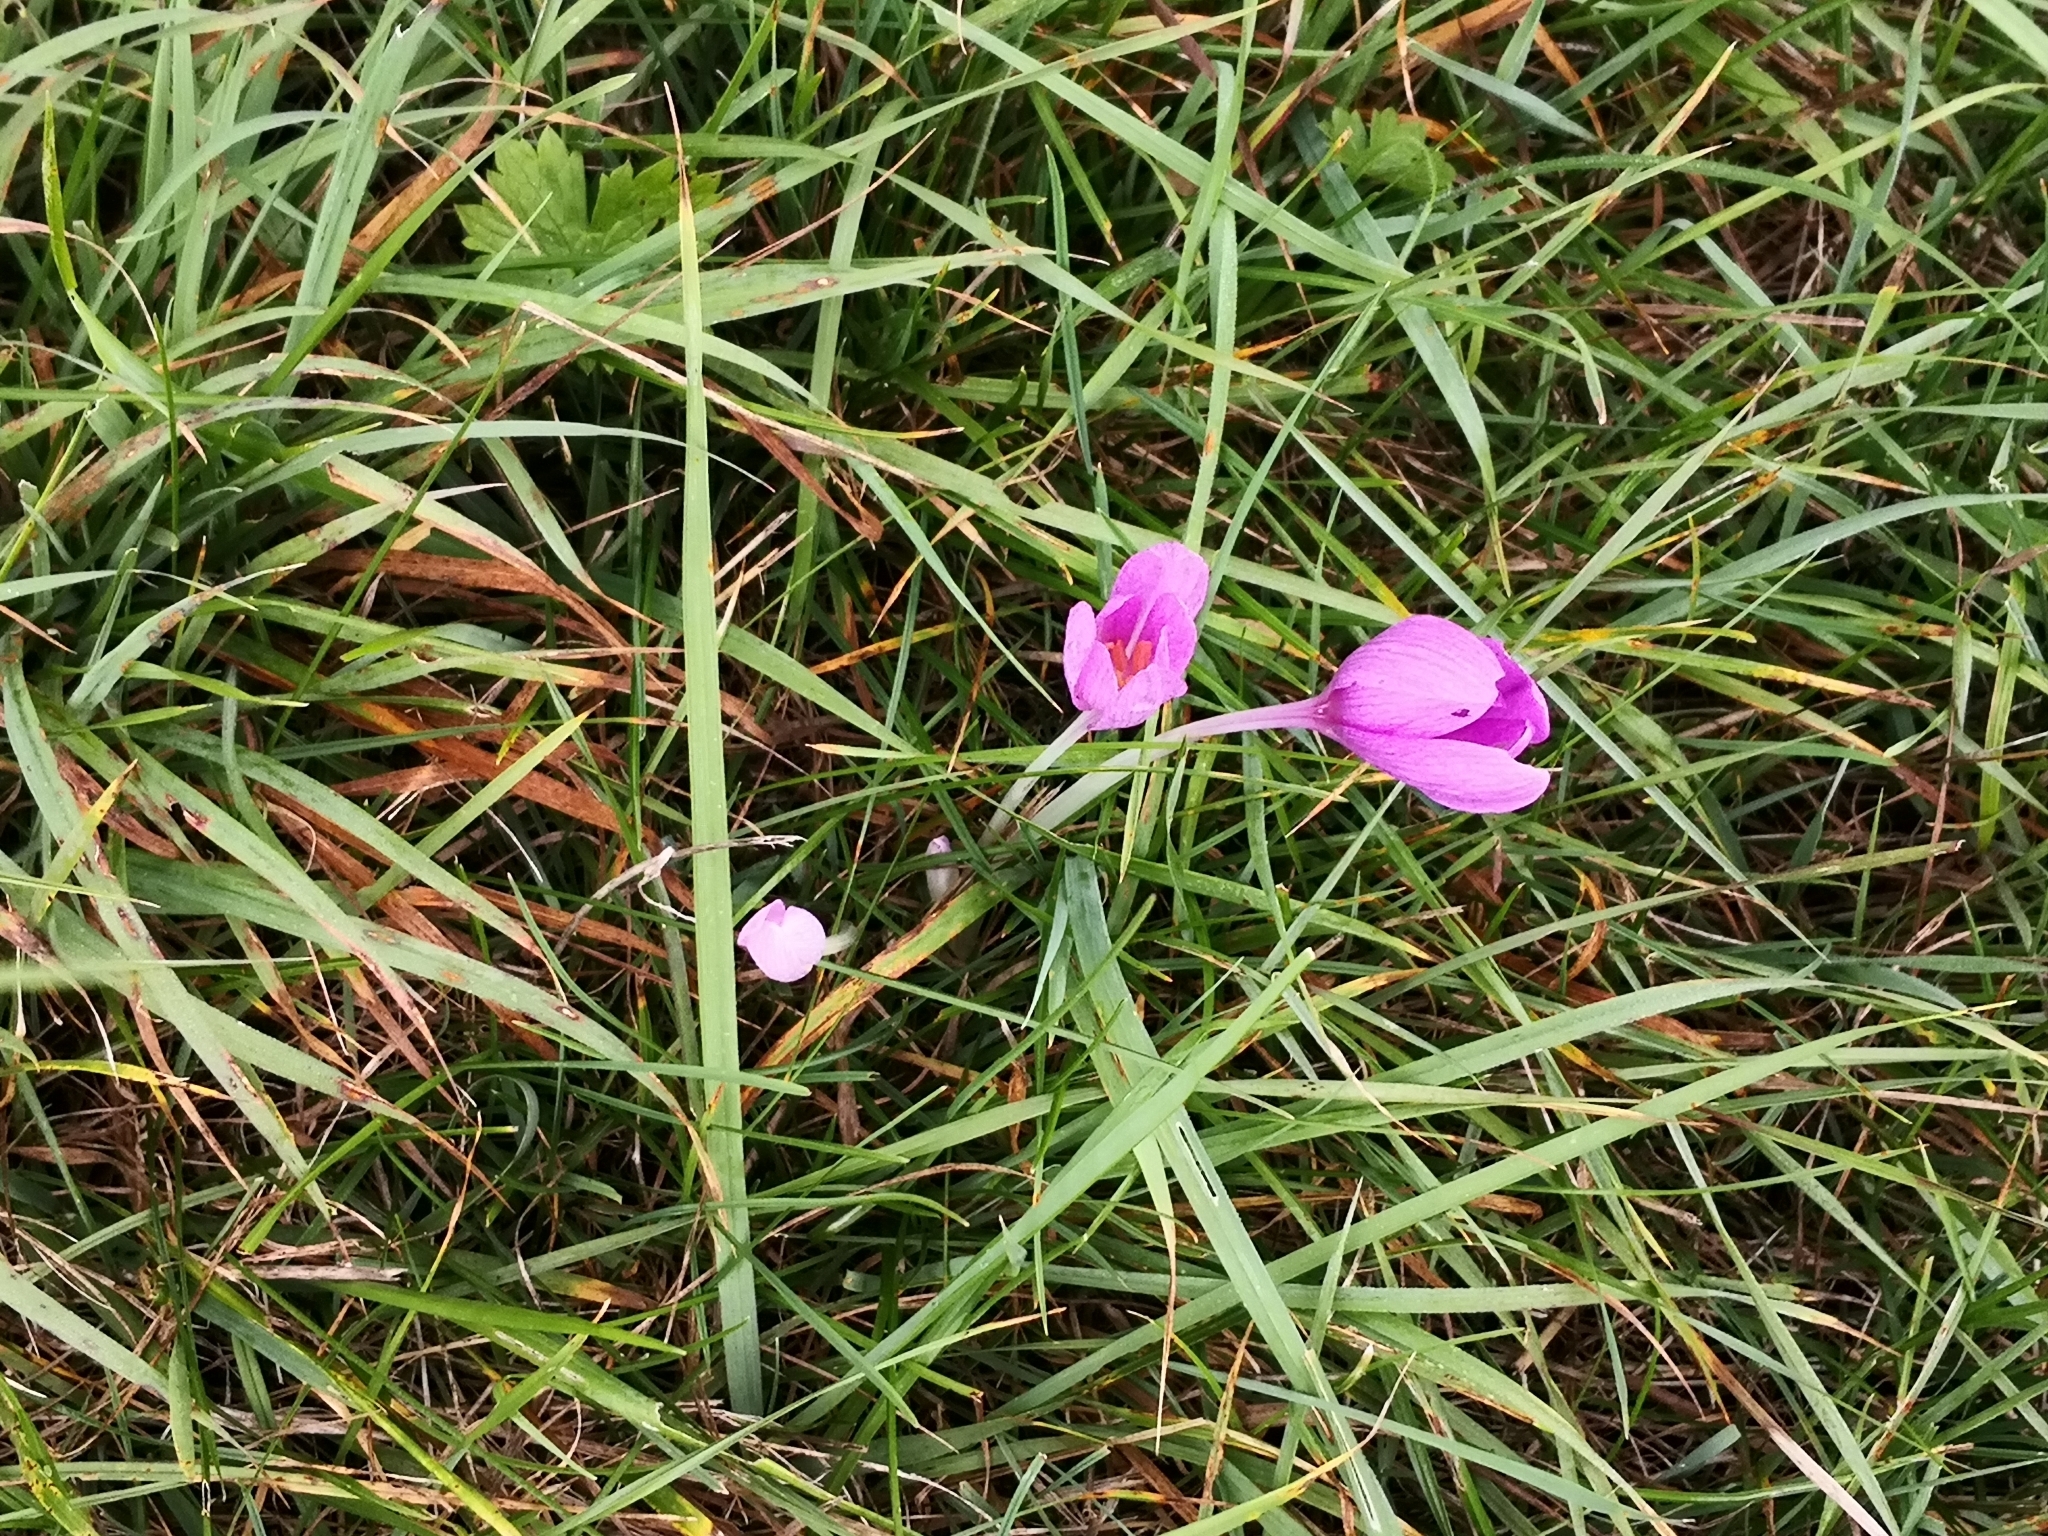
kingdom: Plantae
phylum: Tracheophyta
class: Liliopsida
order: Liliales
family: Colchicaceae
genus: Colchicum
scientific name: Colchicum autumnale
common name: Autumn crocus
